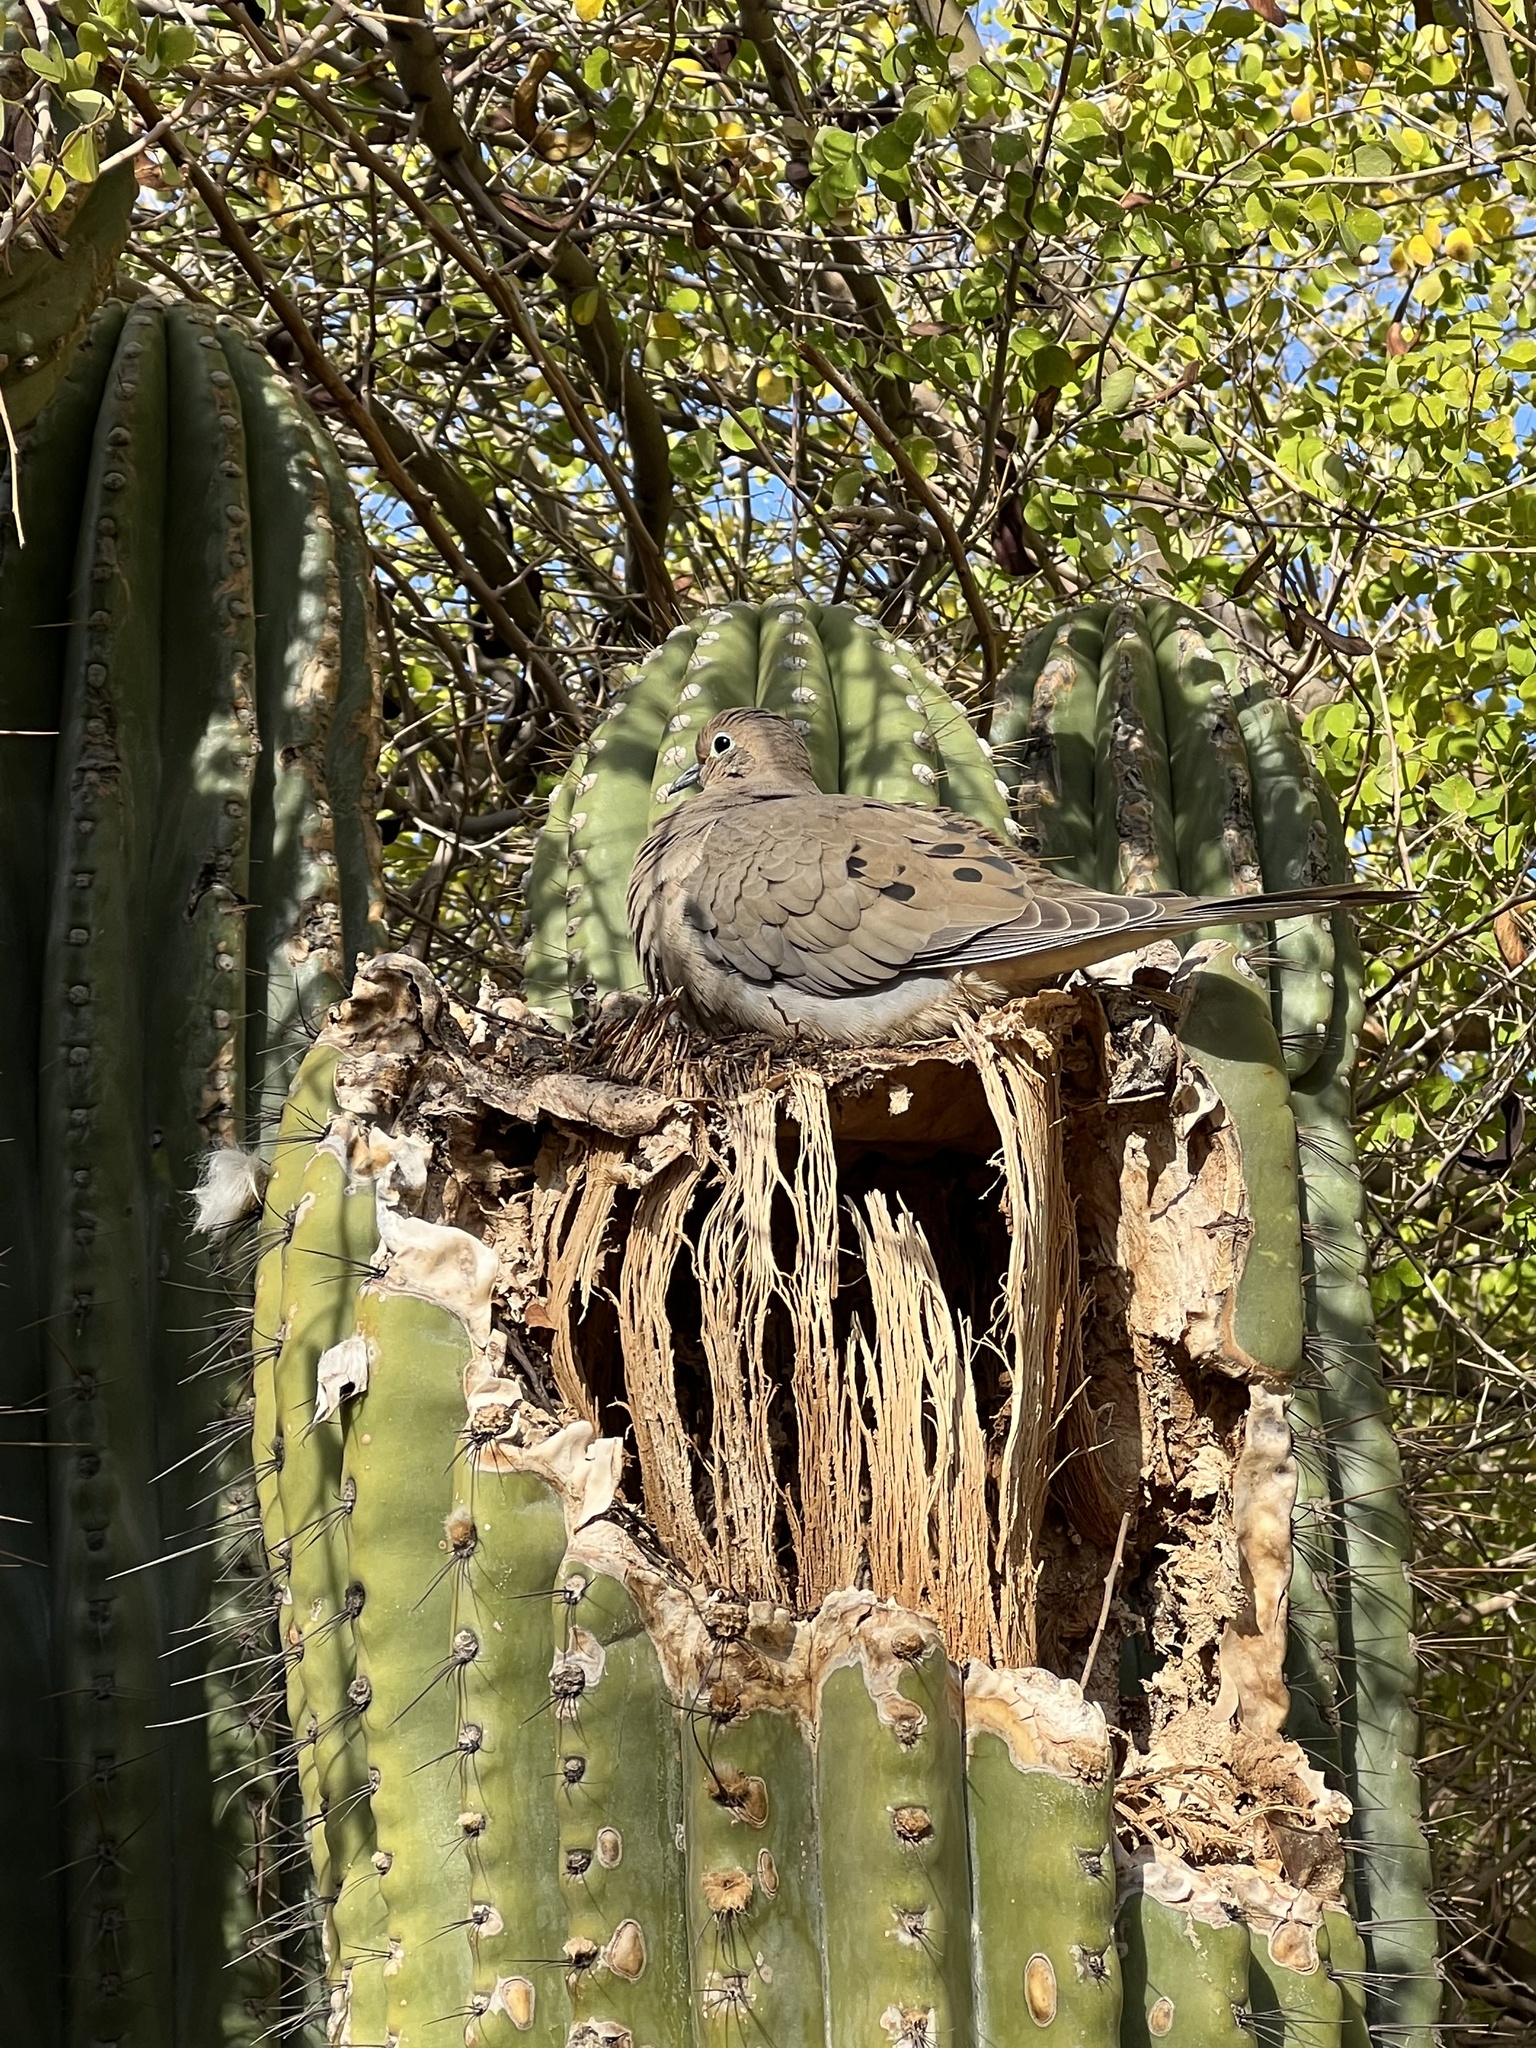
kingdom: Animalia
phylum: Chordata
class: Aves
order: Columbiformes
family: Columbidae
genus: Zenaida
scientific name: Zenaida macroura
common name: Mourning dove
